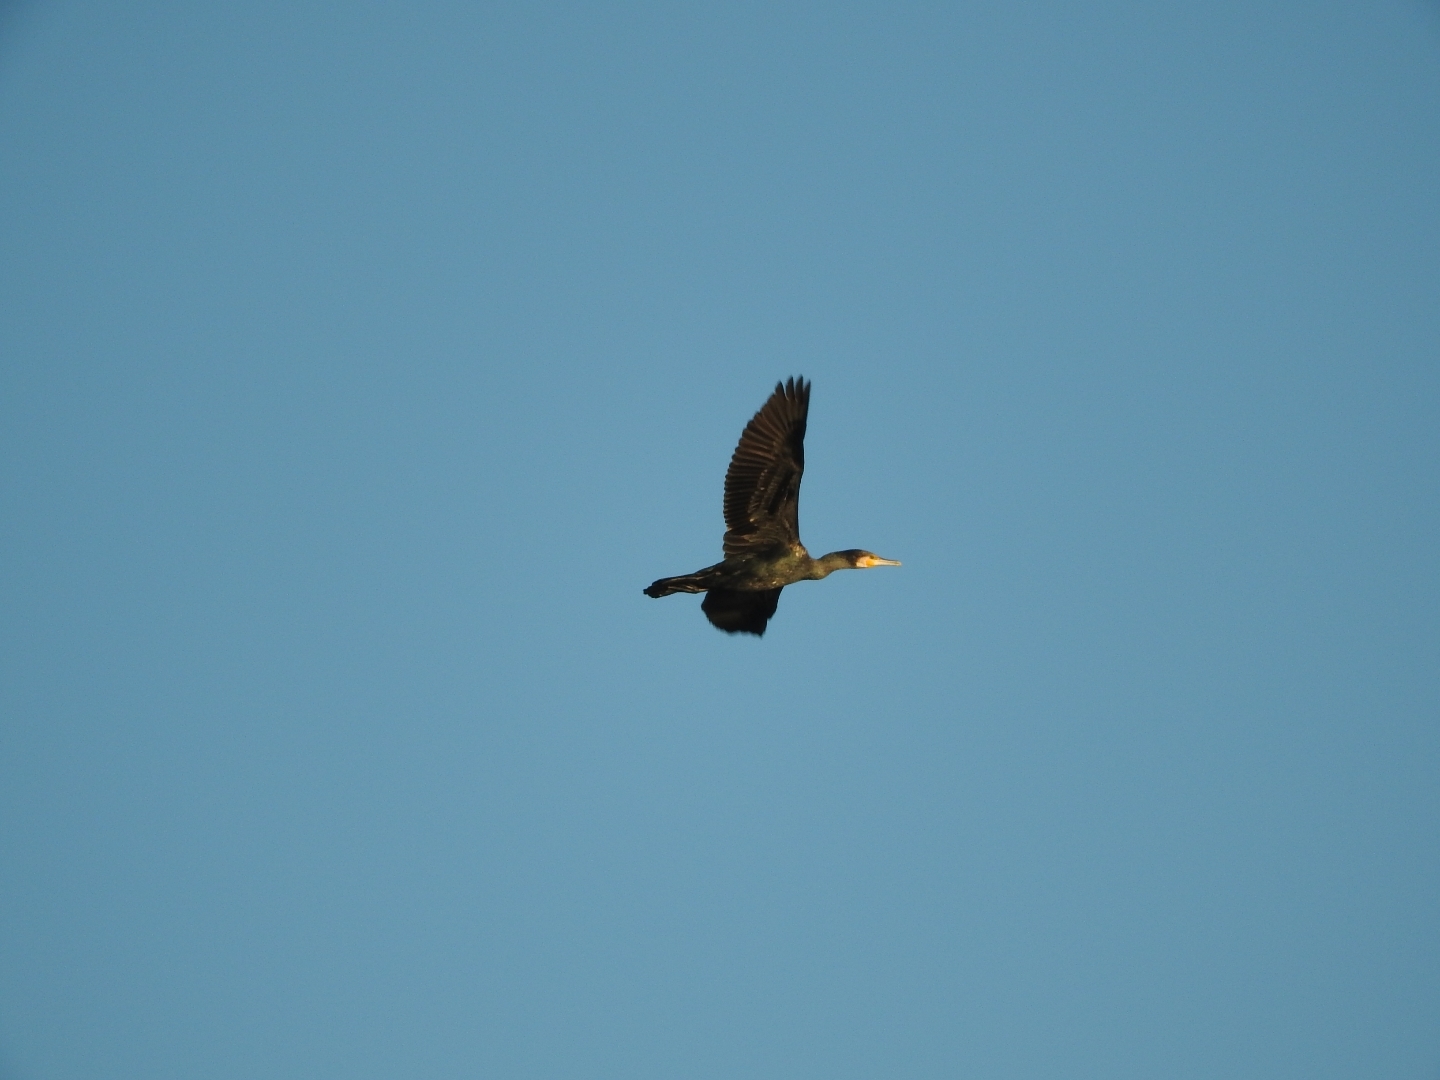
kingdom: Animalia
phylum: Chordata
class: Aves
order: Suliformes
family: Phalacrocoracidae
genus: Phalacrocorax
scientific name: Phalacrocorax carbo
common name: Great cormorant
